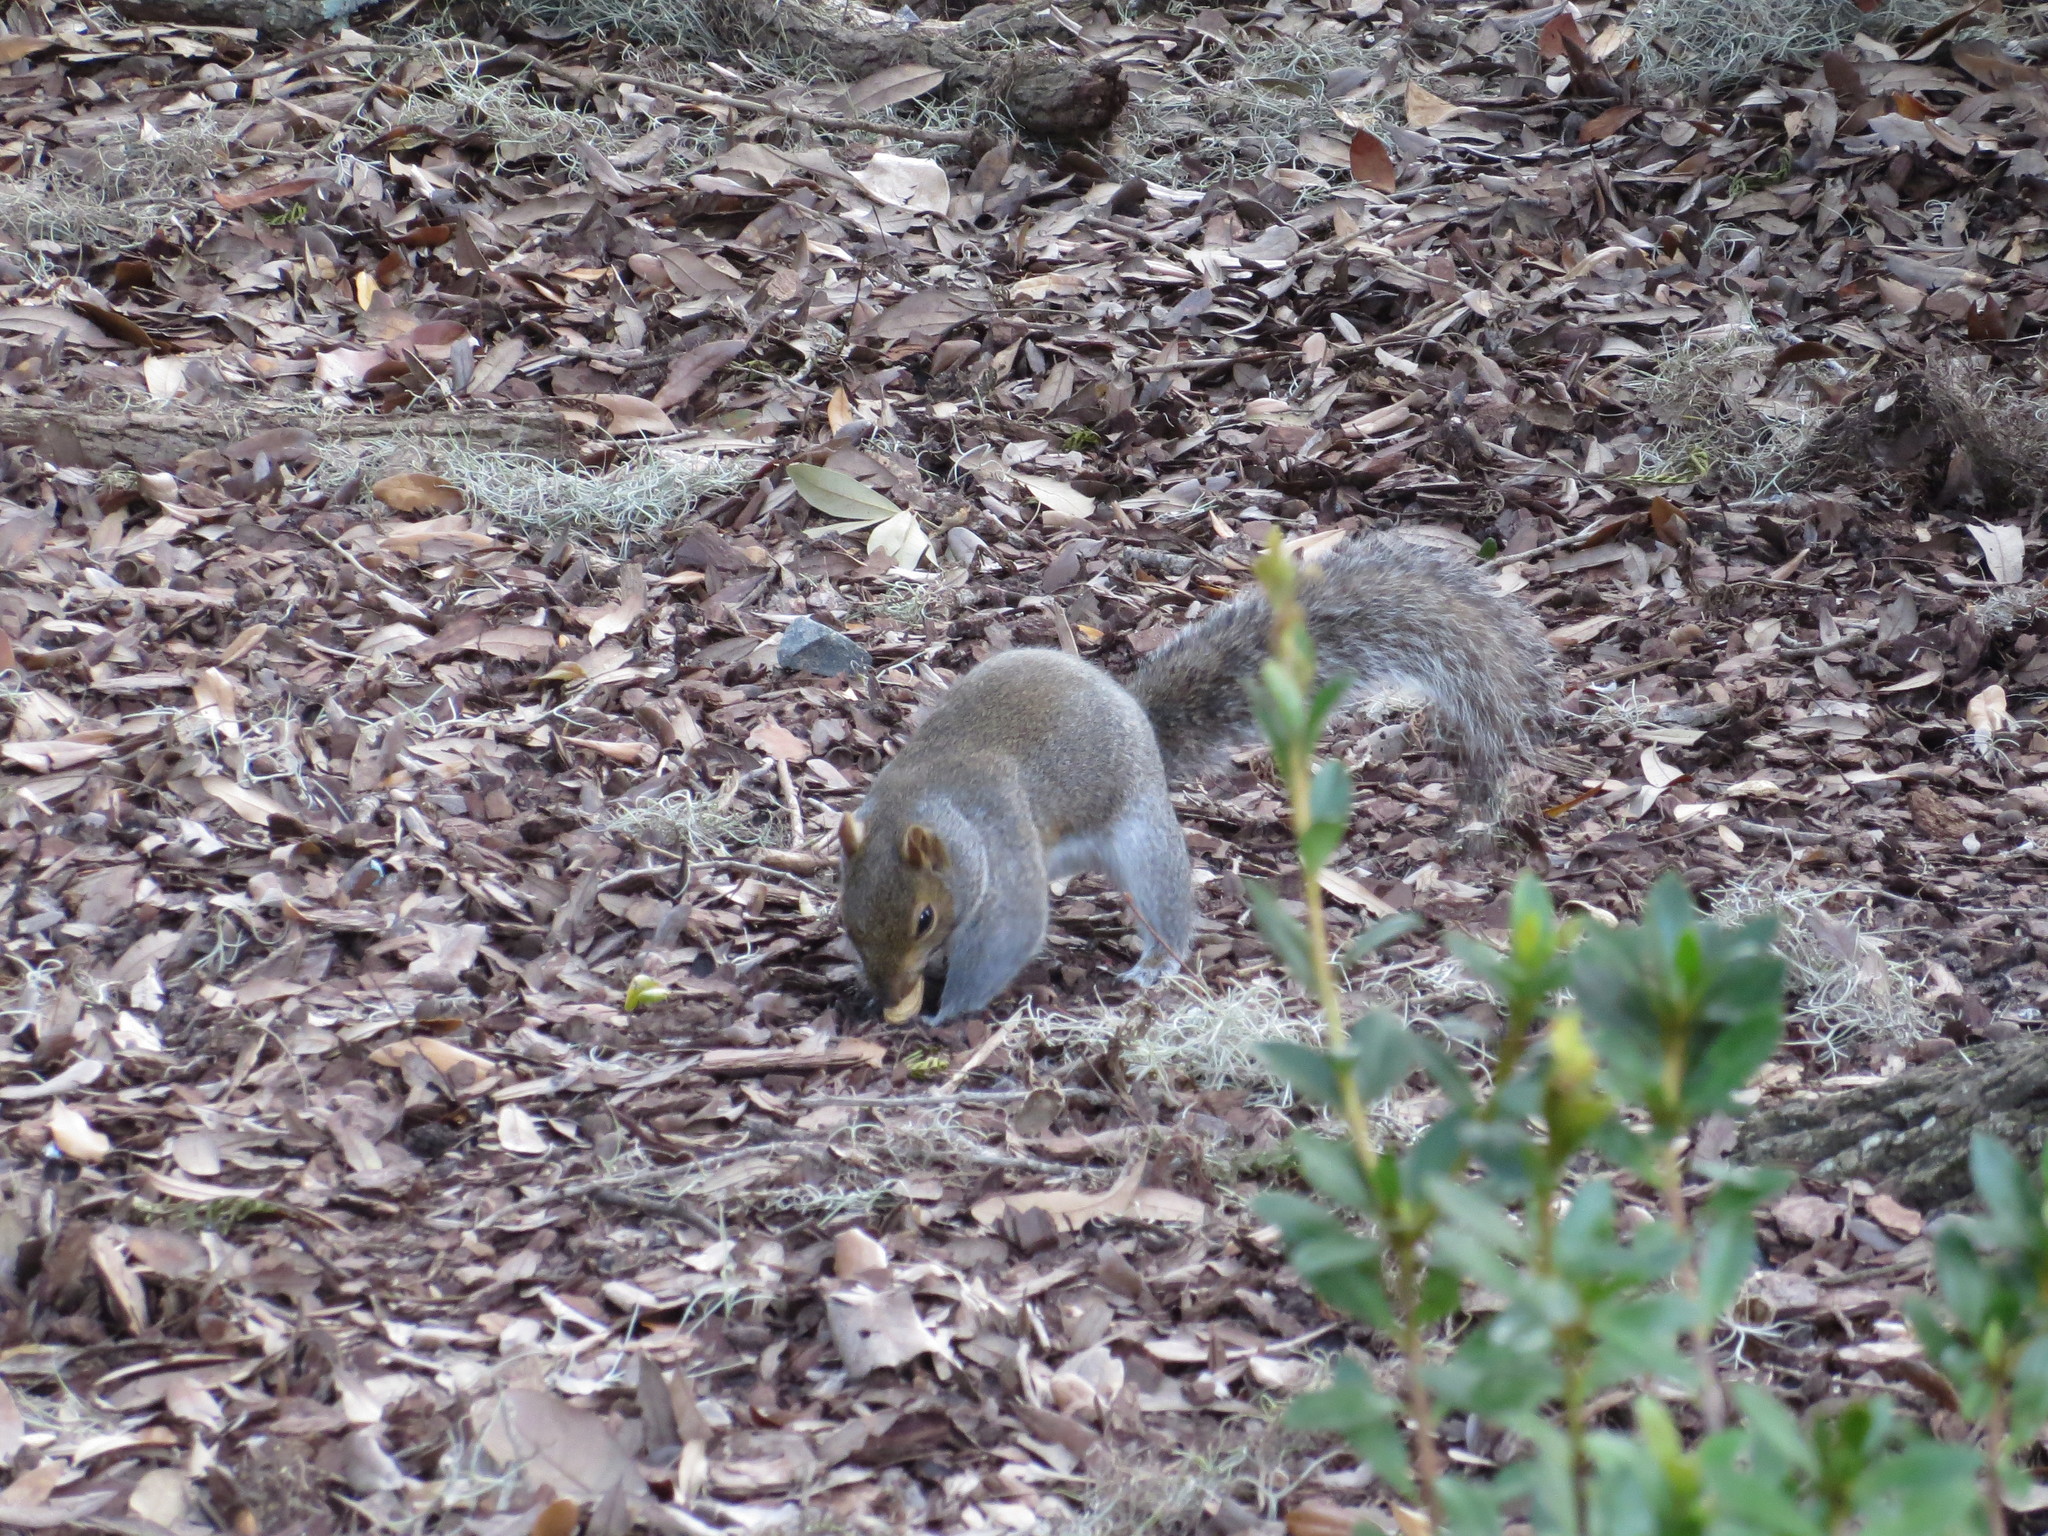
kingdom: Animalia
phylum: Chordata
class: Mammalia
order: Rodentia
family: Sciuridae
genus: Sciurus
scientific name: Sciurus carolinensis
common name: Eastern gray squirrel
